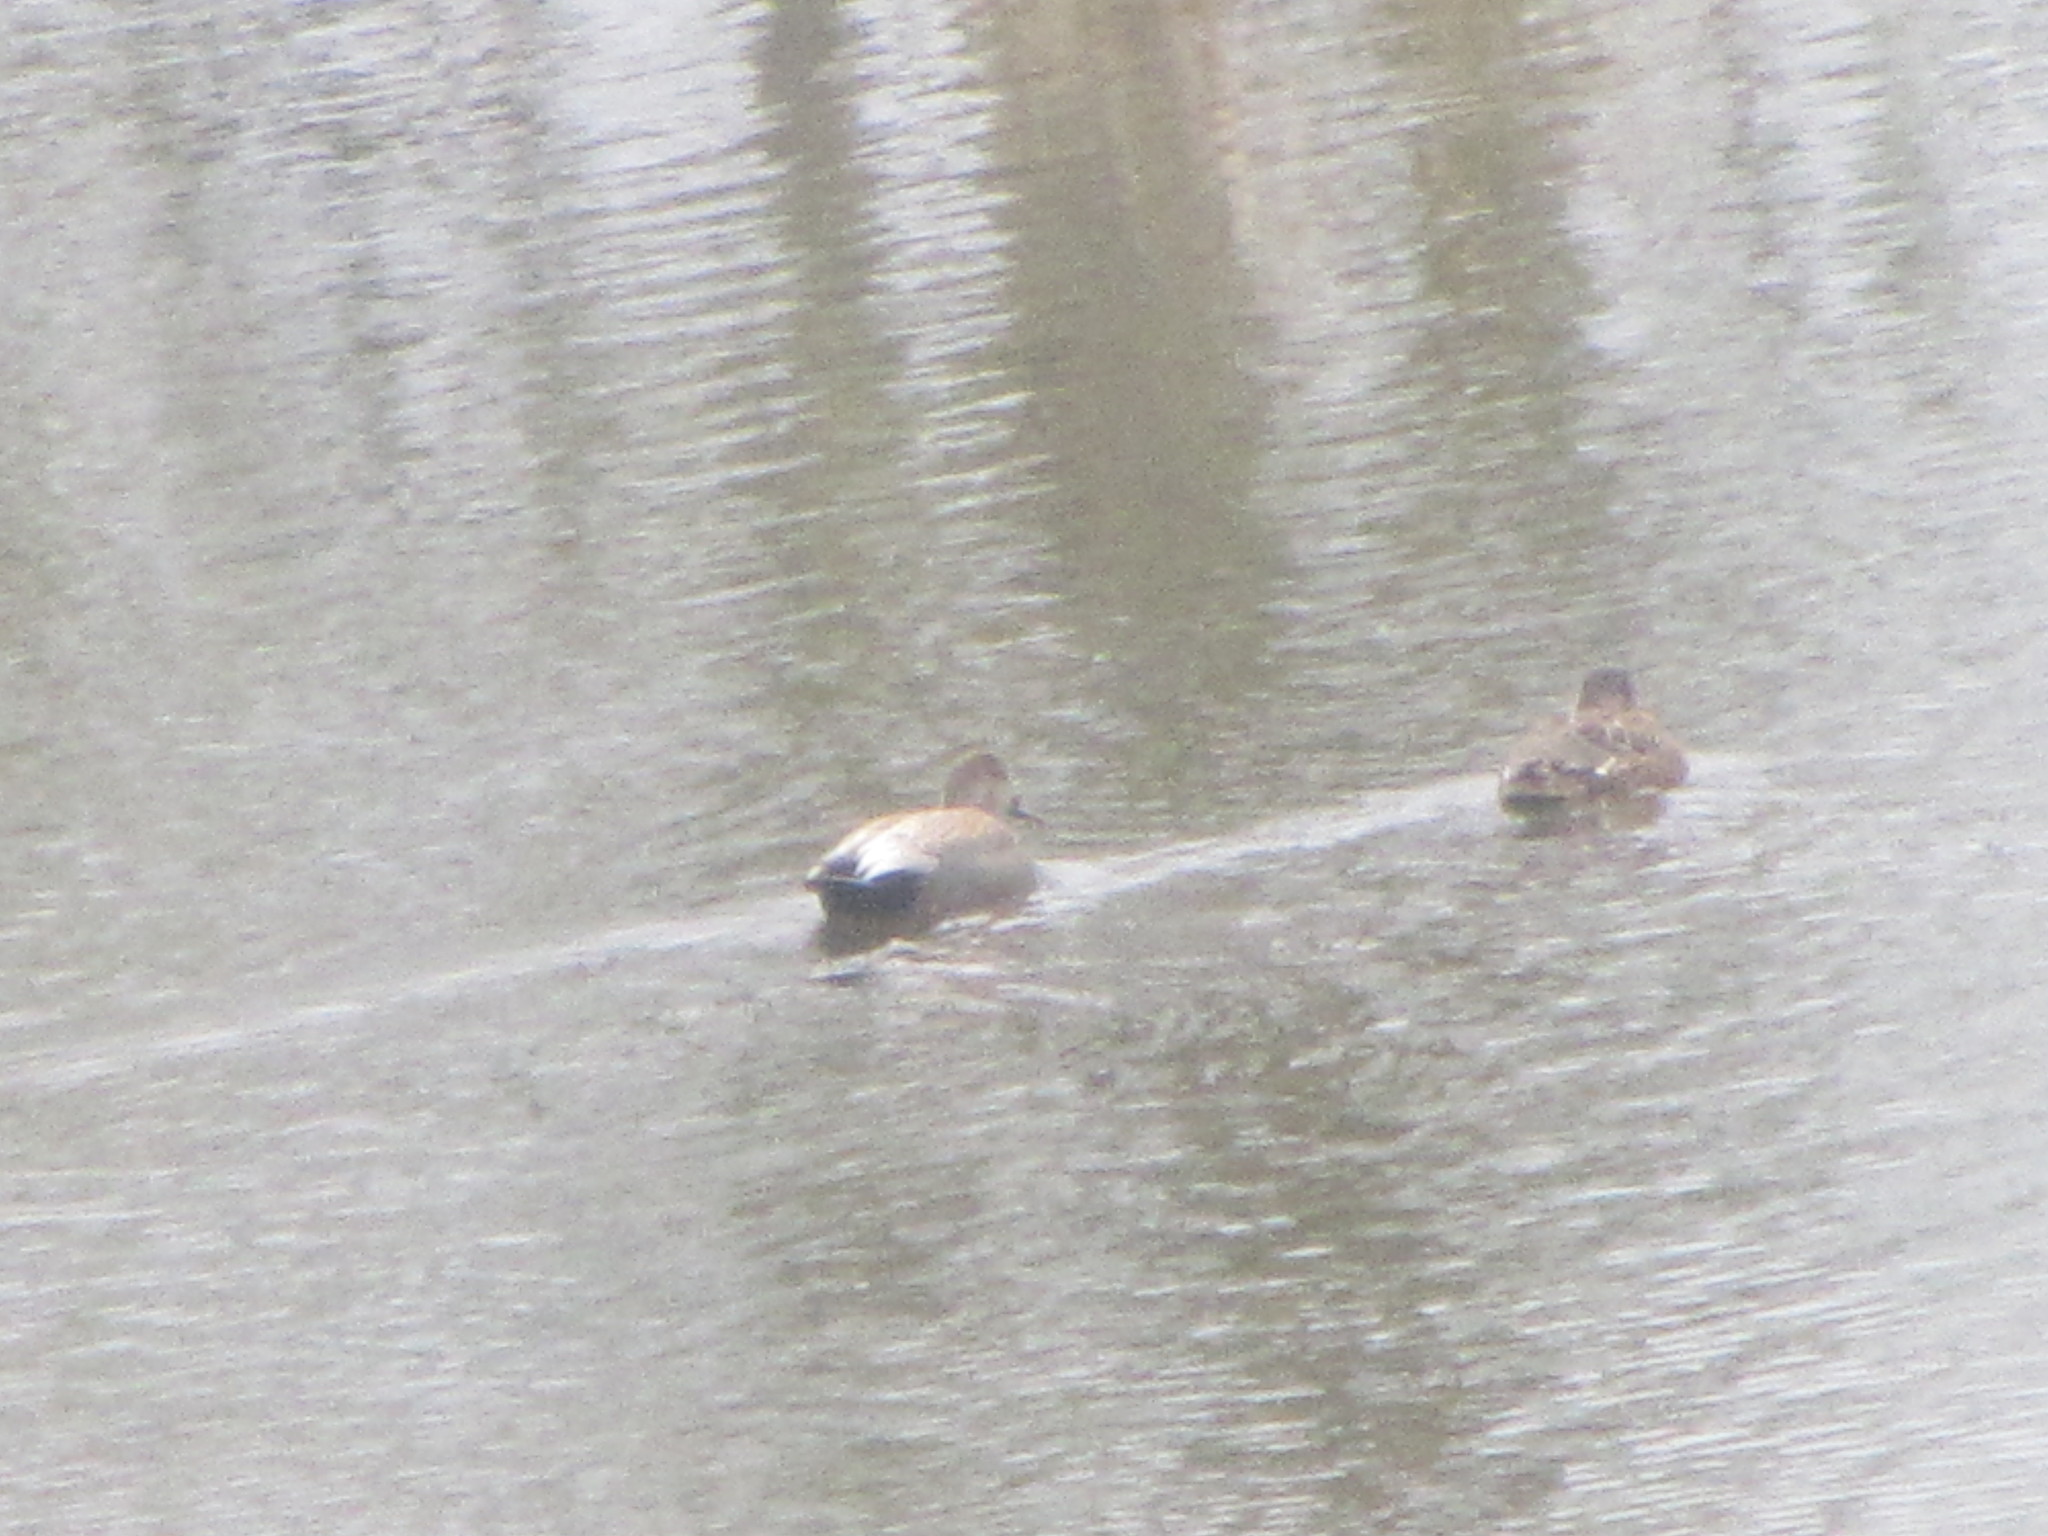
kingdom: Animalia
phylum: Chordata
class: Aves
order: Anseriformes
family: Anatidae
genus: Mareca
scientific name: Mareca strepera
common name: Gadwall
